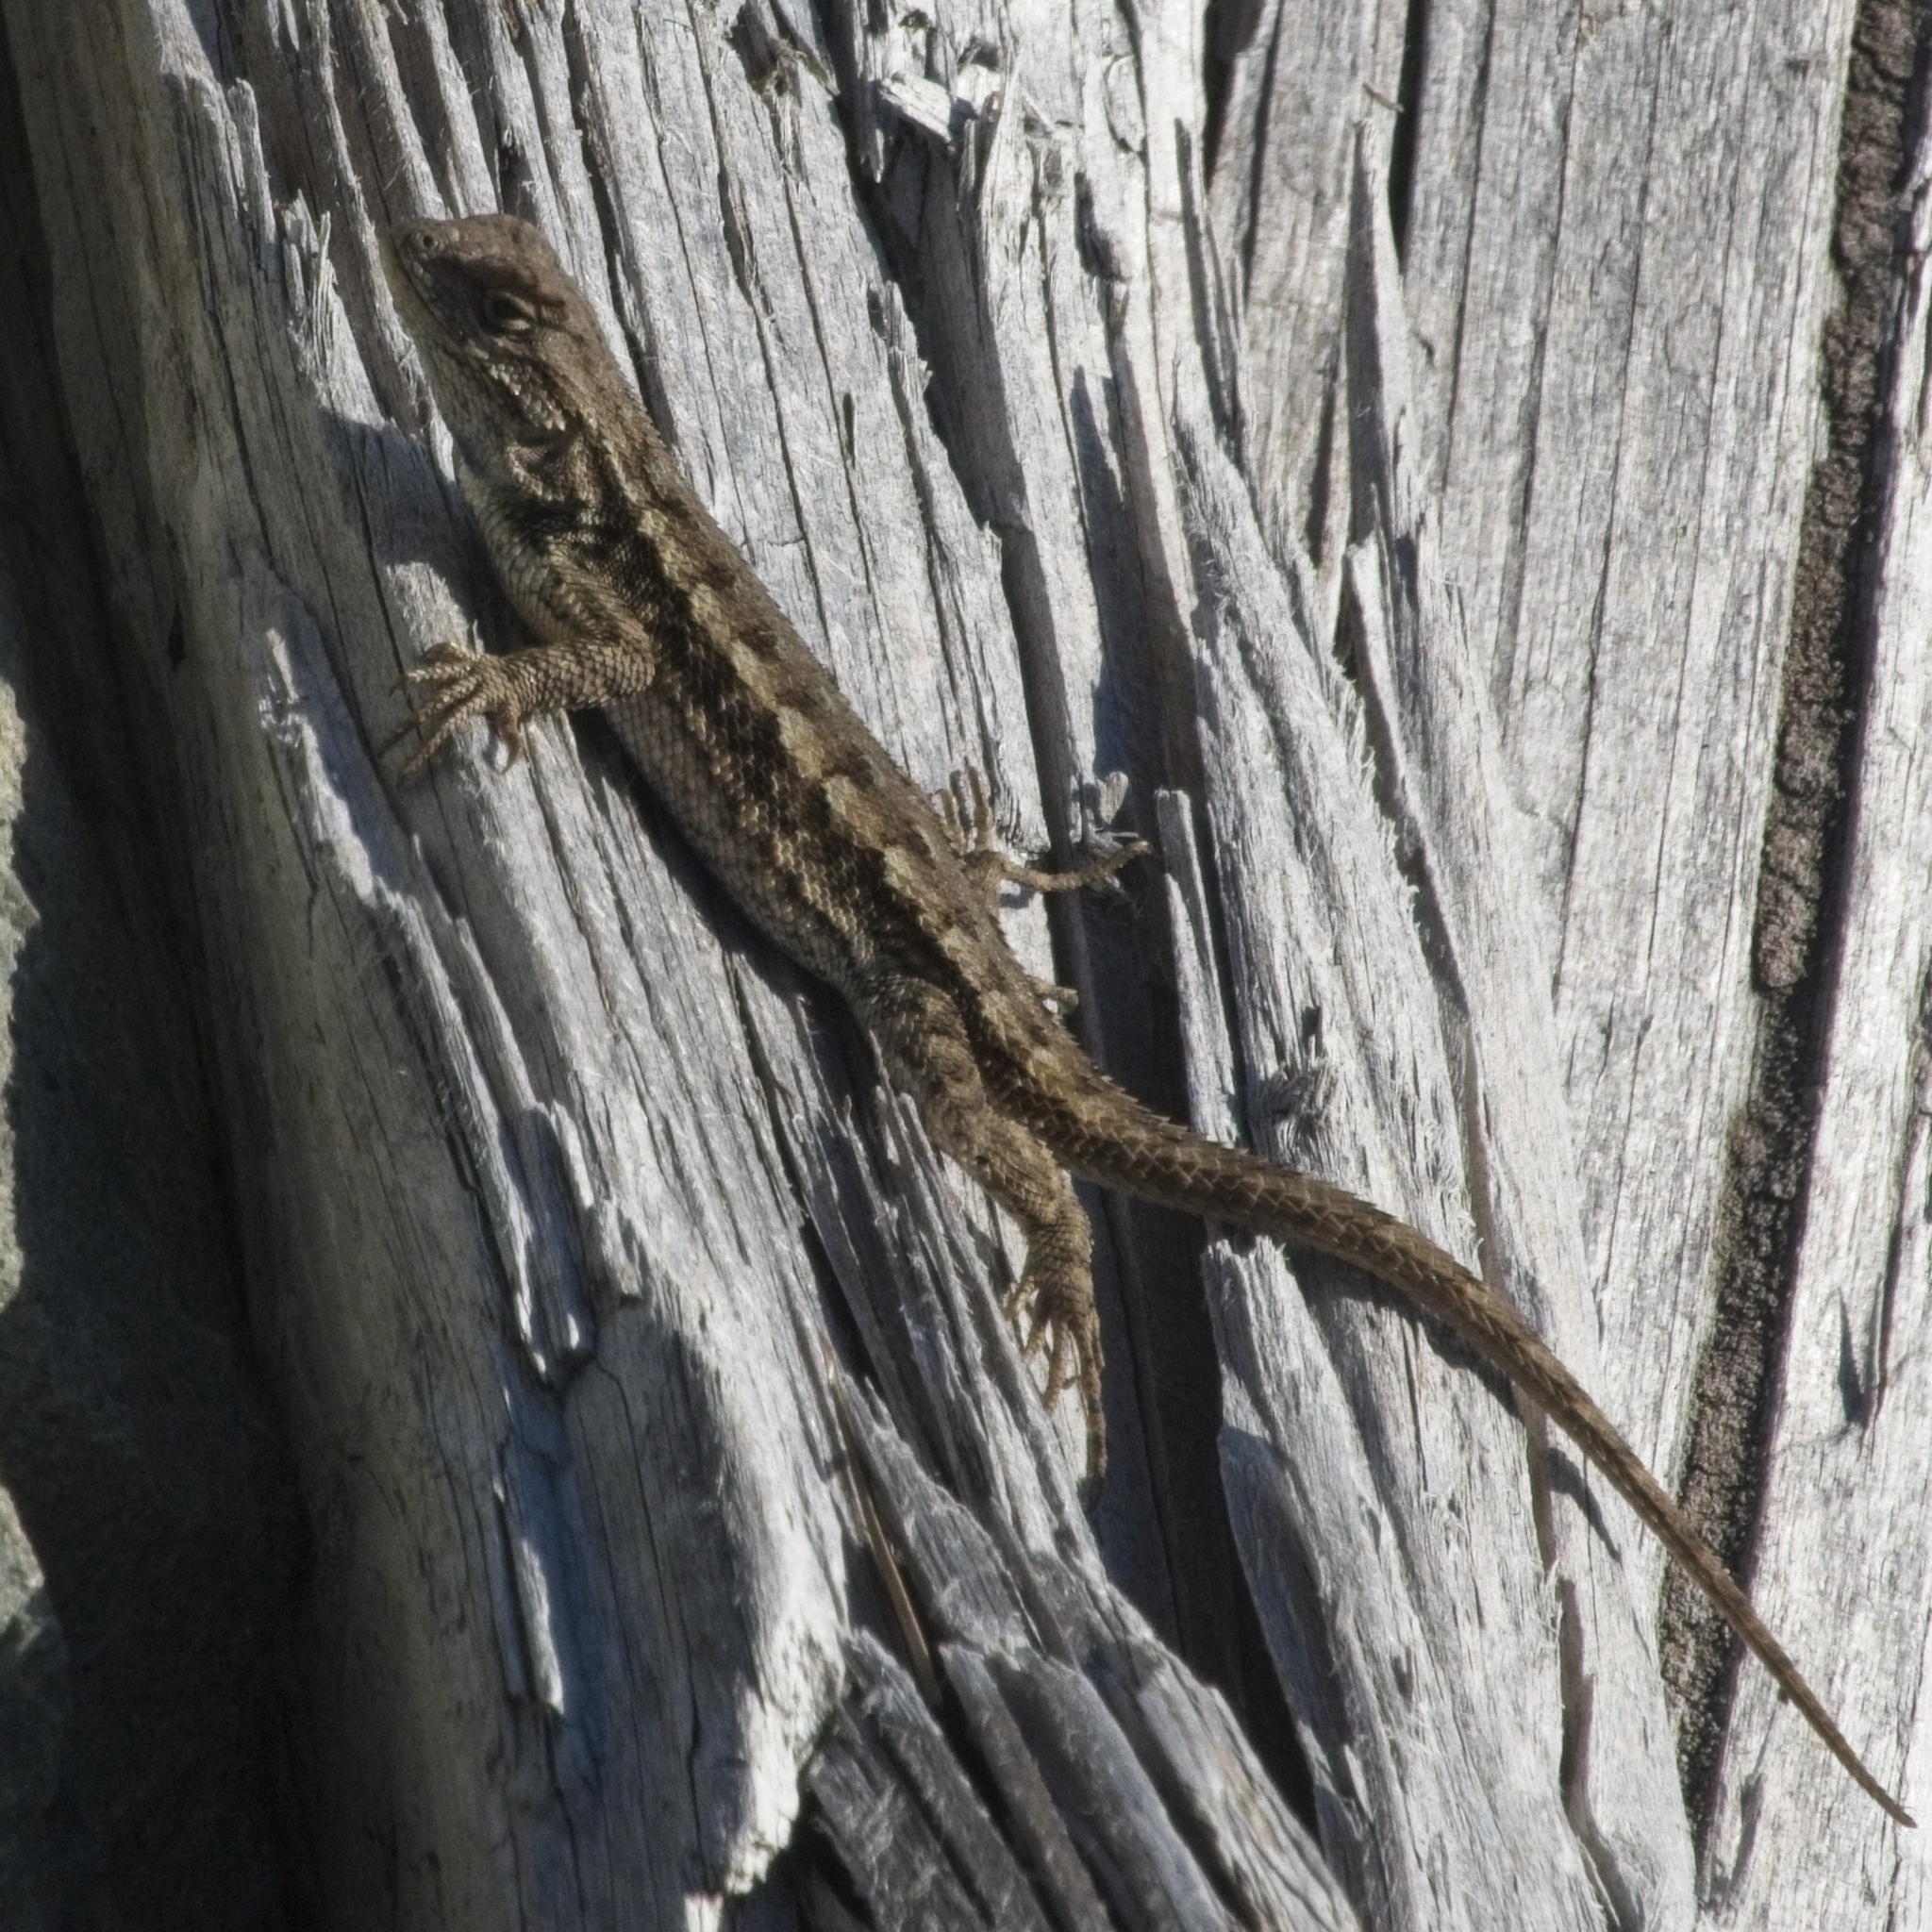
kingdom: Animalia
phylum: Chordata
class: Squamata
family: Phrynosomatidae
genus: Sceloporus
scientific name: Sceloporus occidentalis
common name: Western fence lizard
